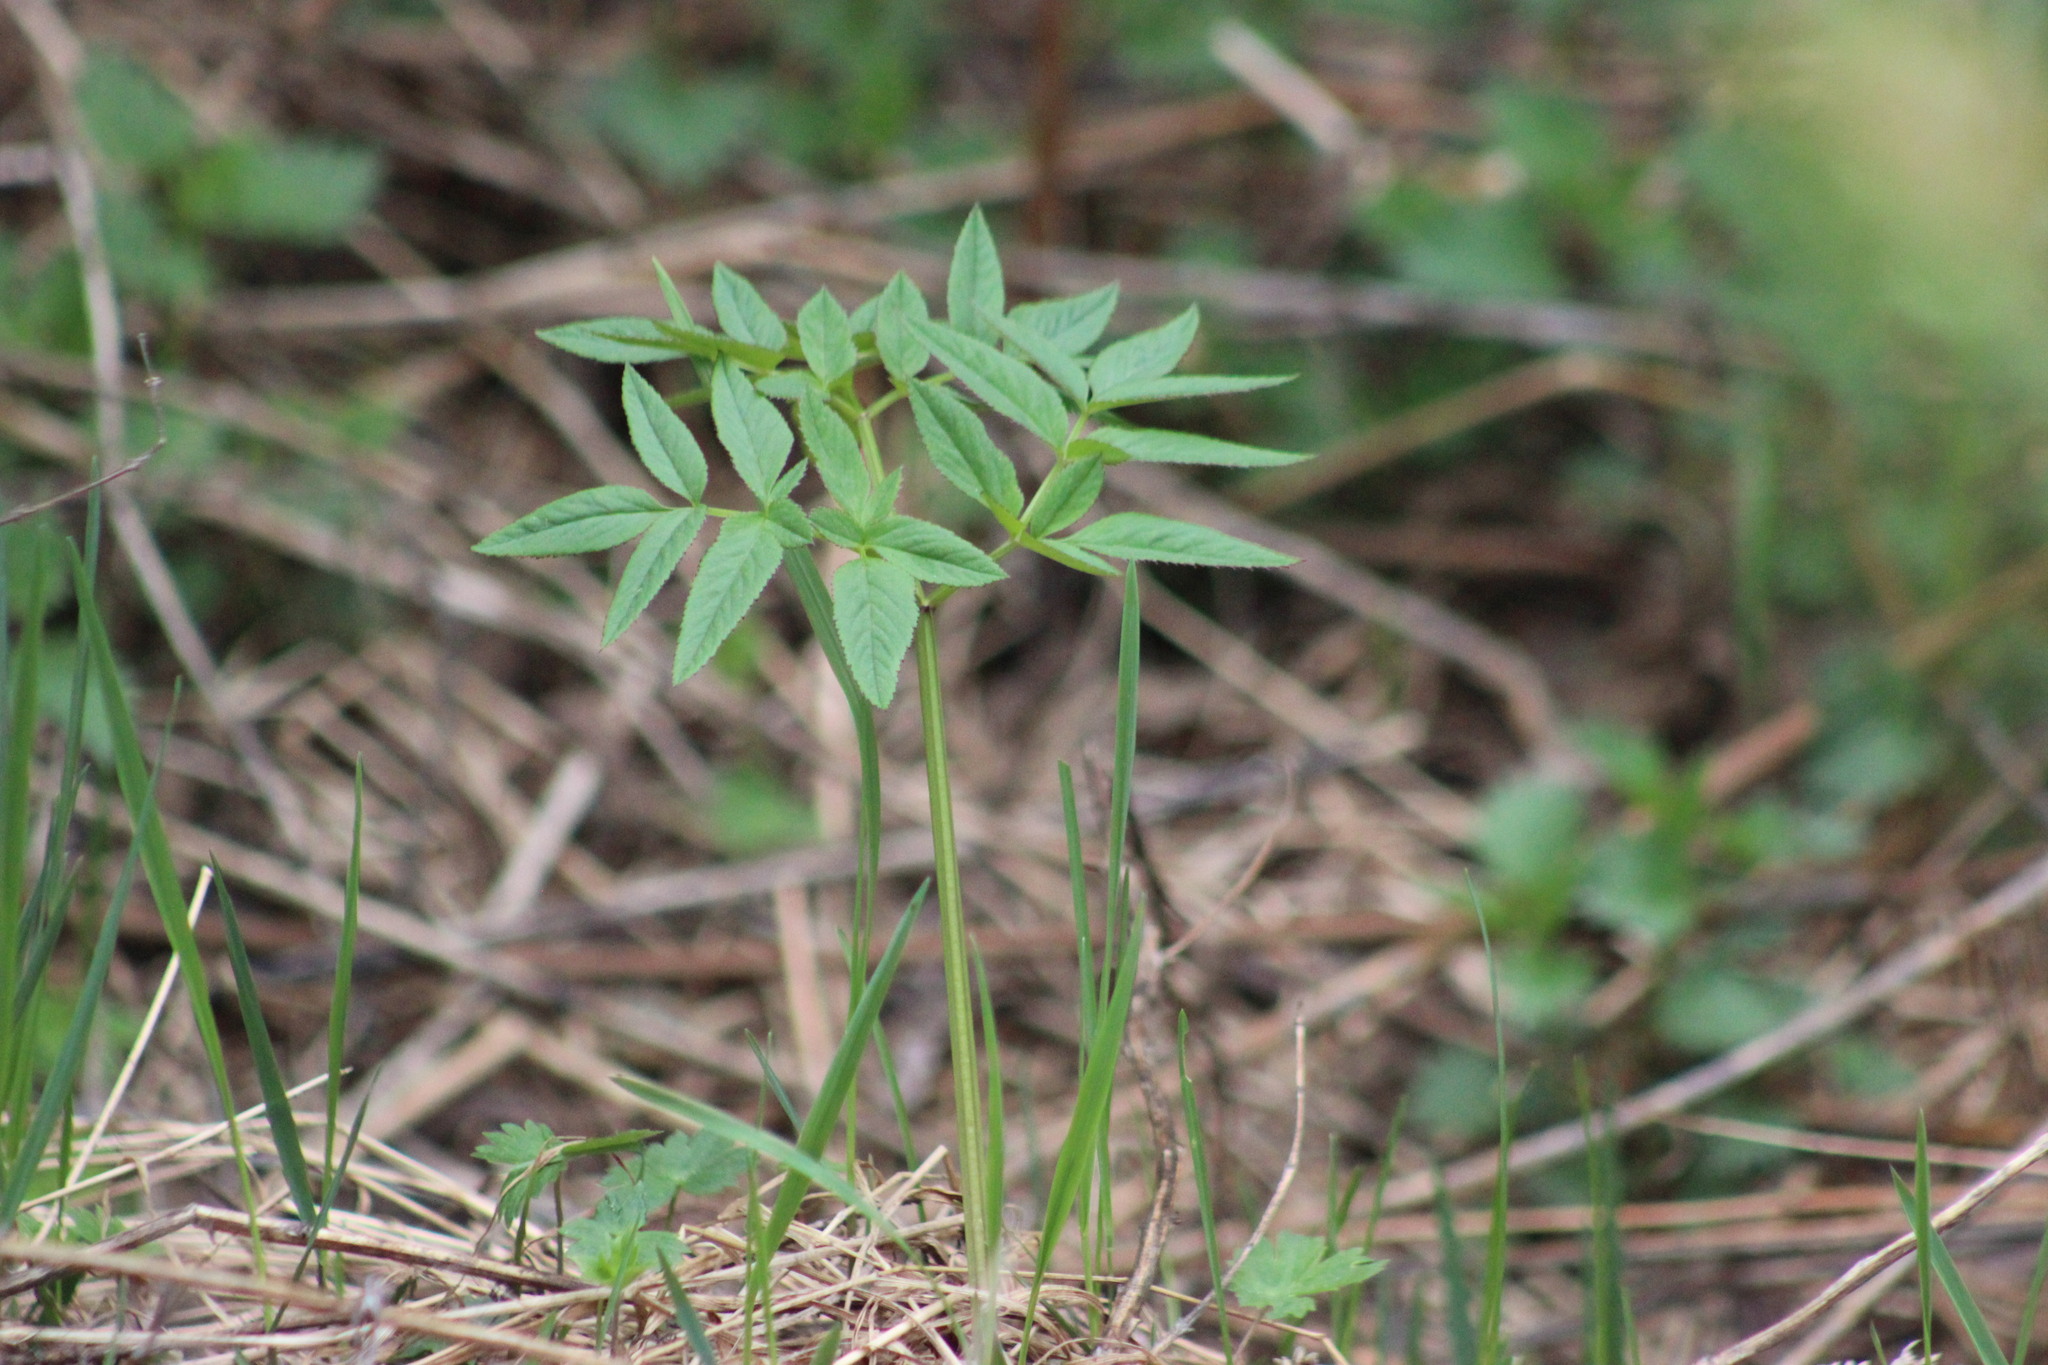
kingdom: Plantae
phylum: Tracheophyta
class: Magnoliopsida
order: Apiales
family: Apiaceae
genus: Angelica
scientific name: Angelica sylvestris
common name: Wild angelica
